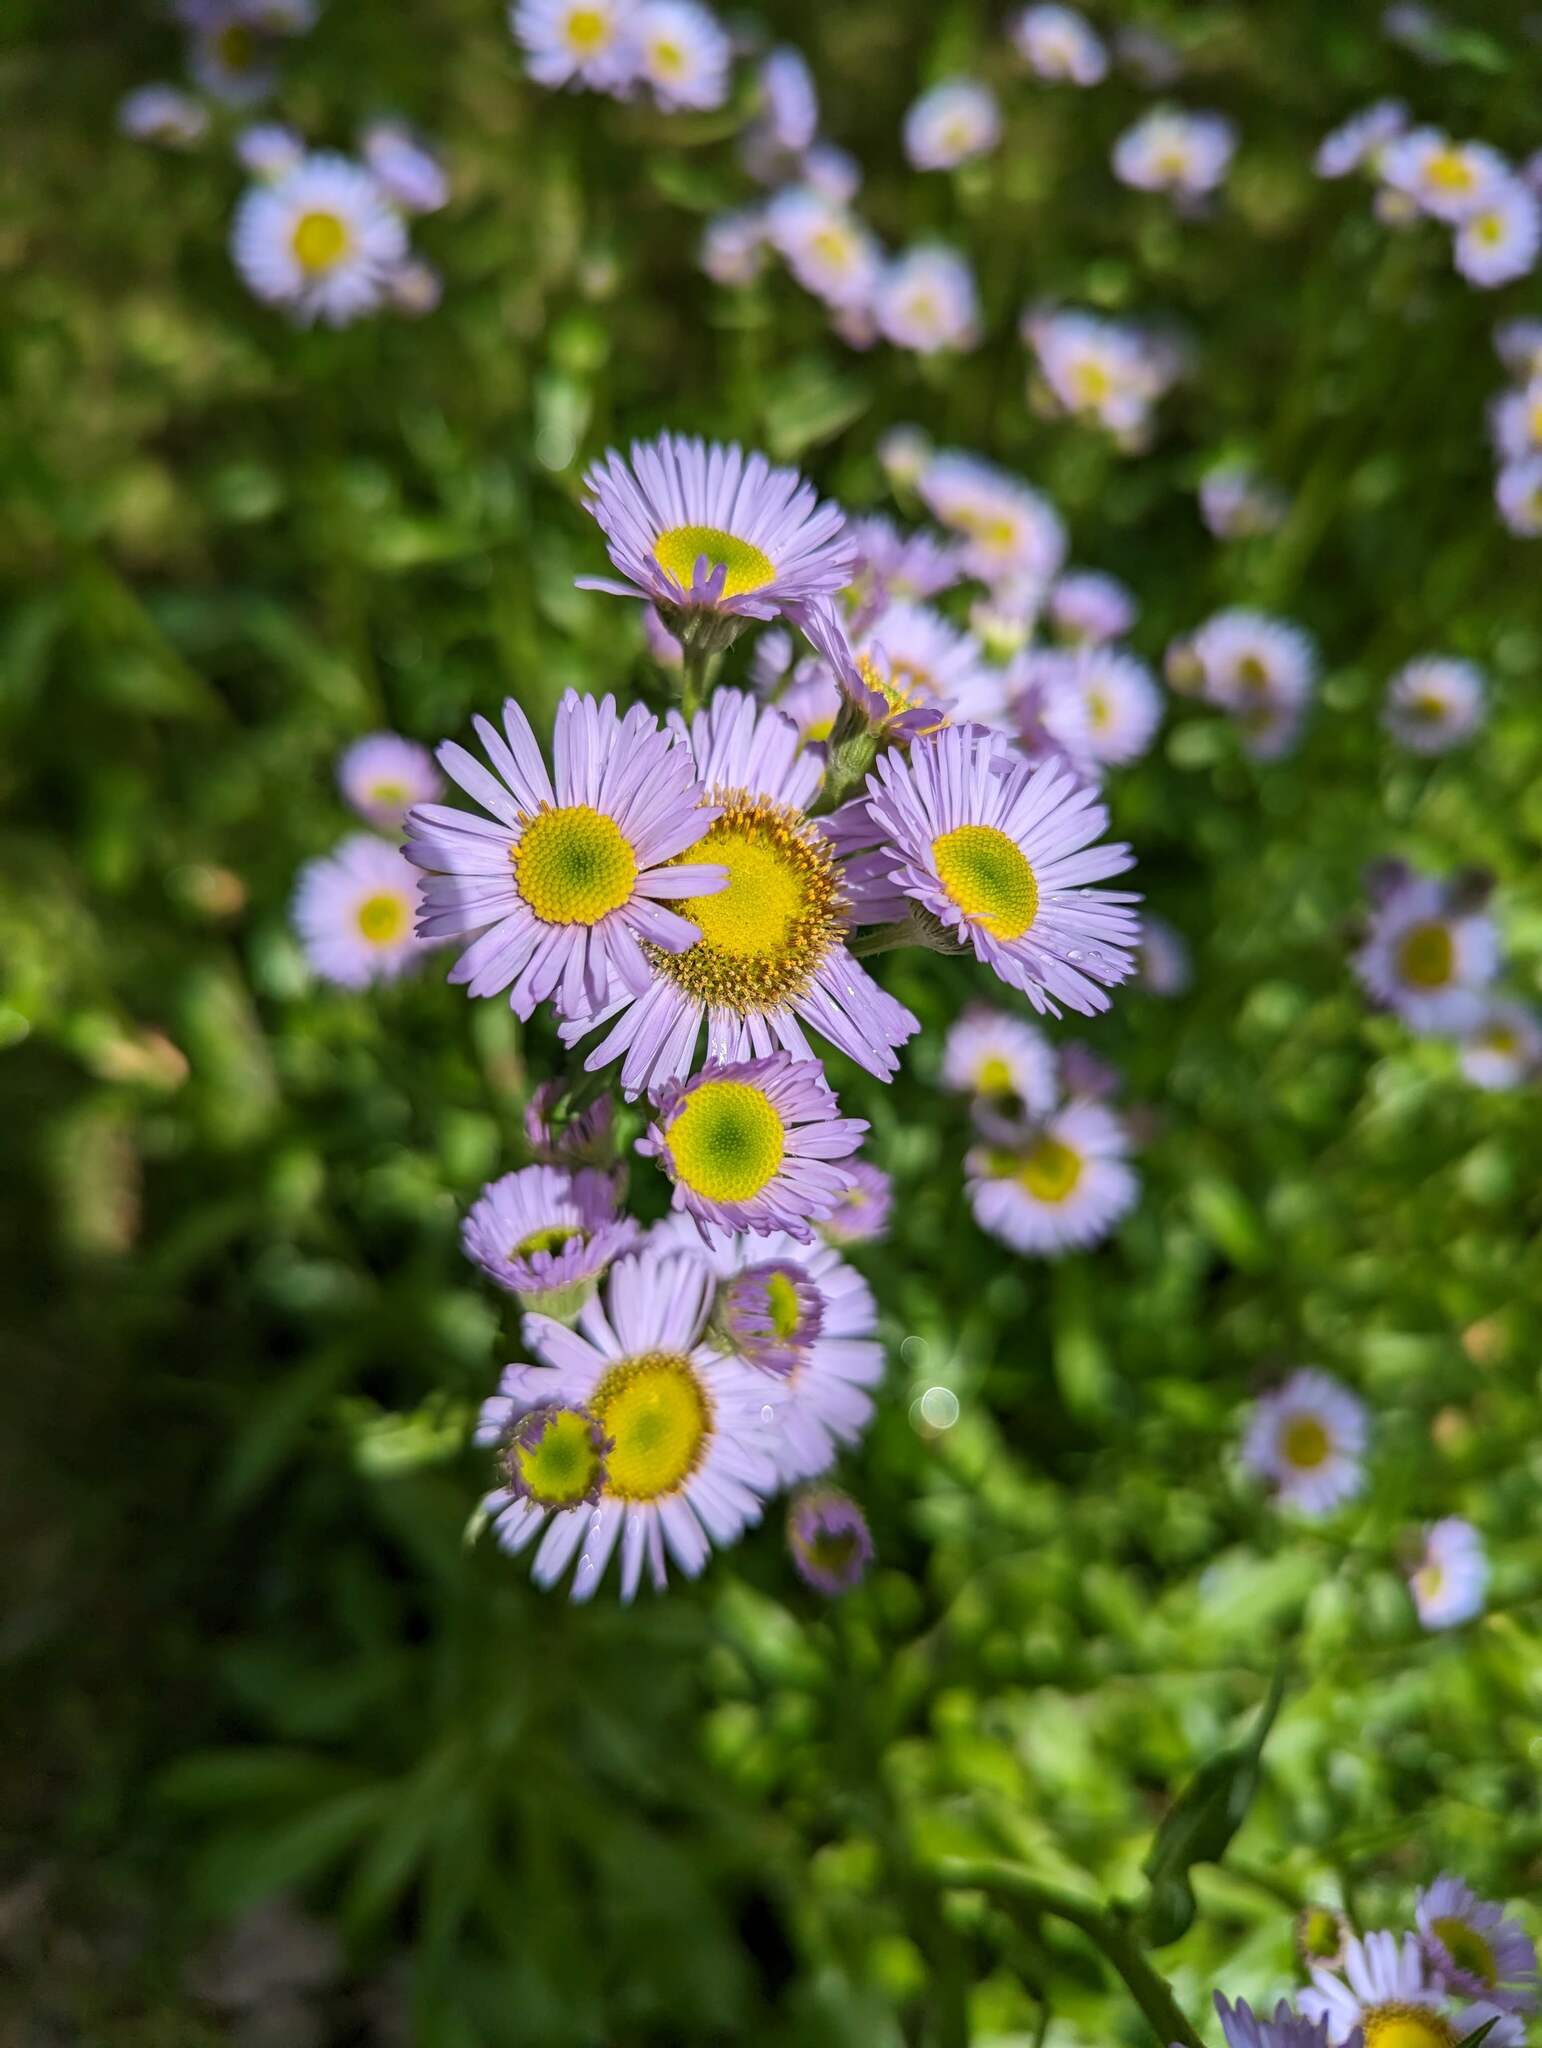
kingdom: Plantae
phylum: Tracheophyta
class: Magnoliopsida
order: Asterales
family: Asteraceae
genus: Erigeron
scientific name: Erigeron pulchellus
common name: Hairy fleabane
